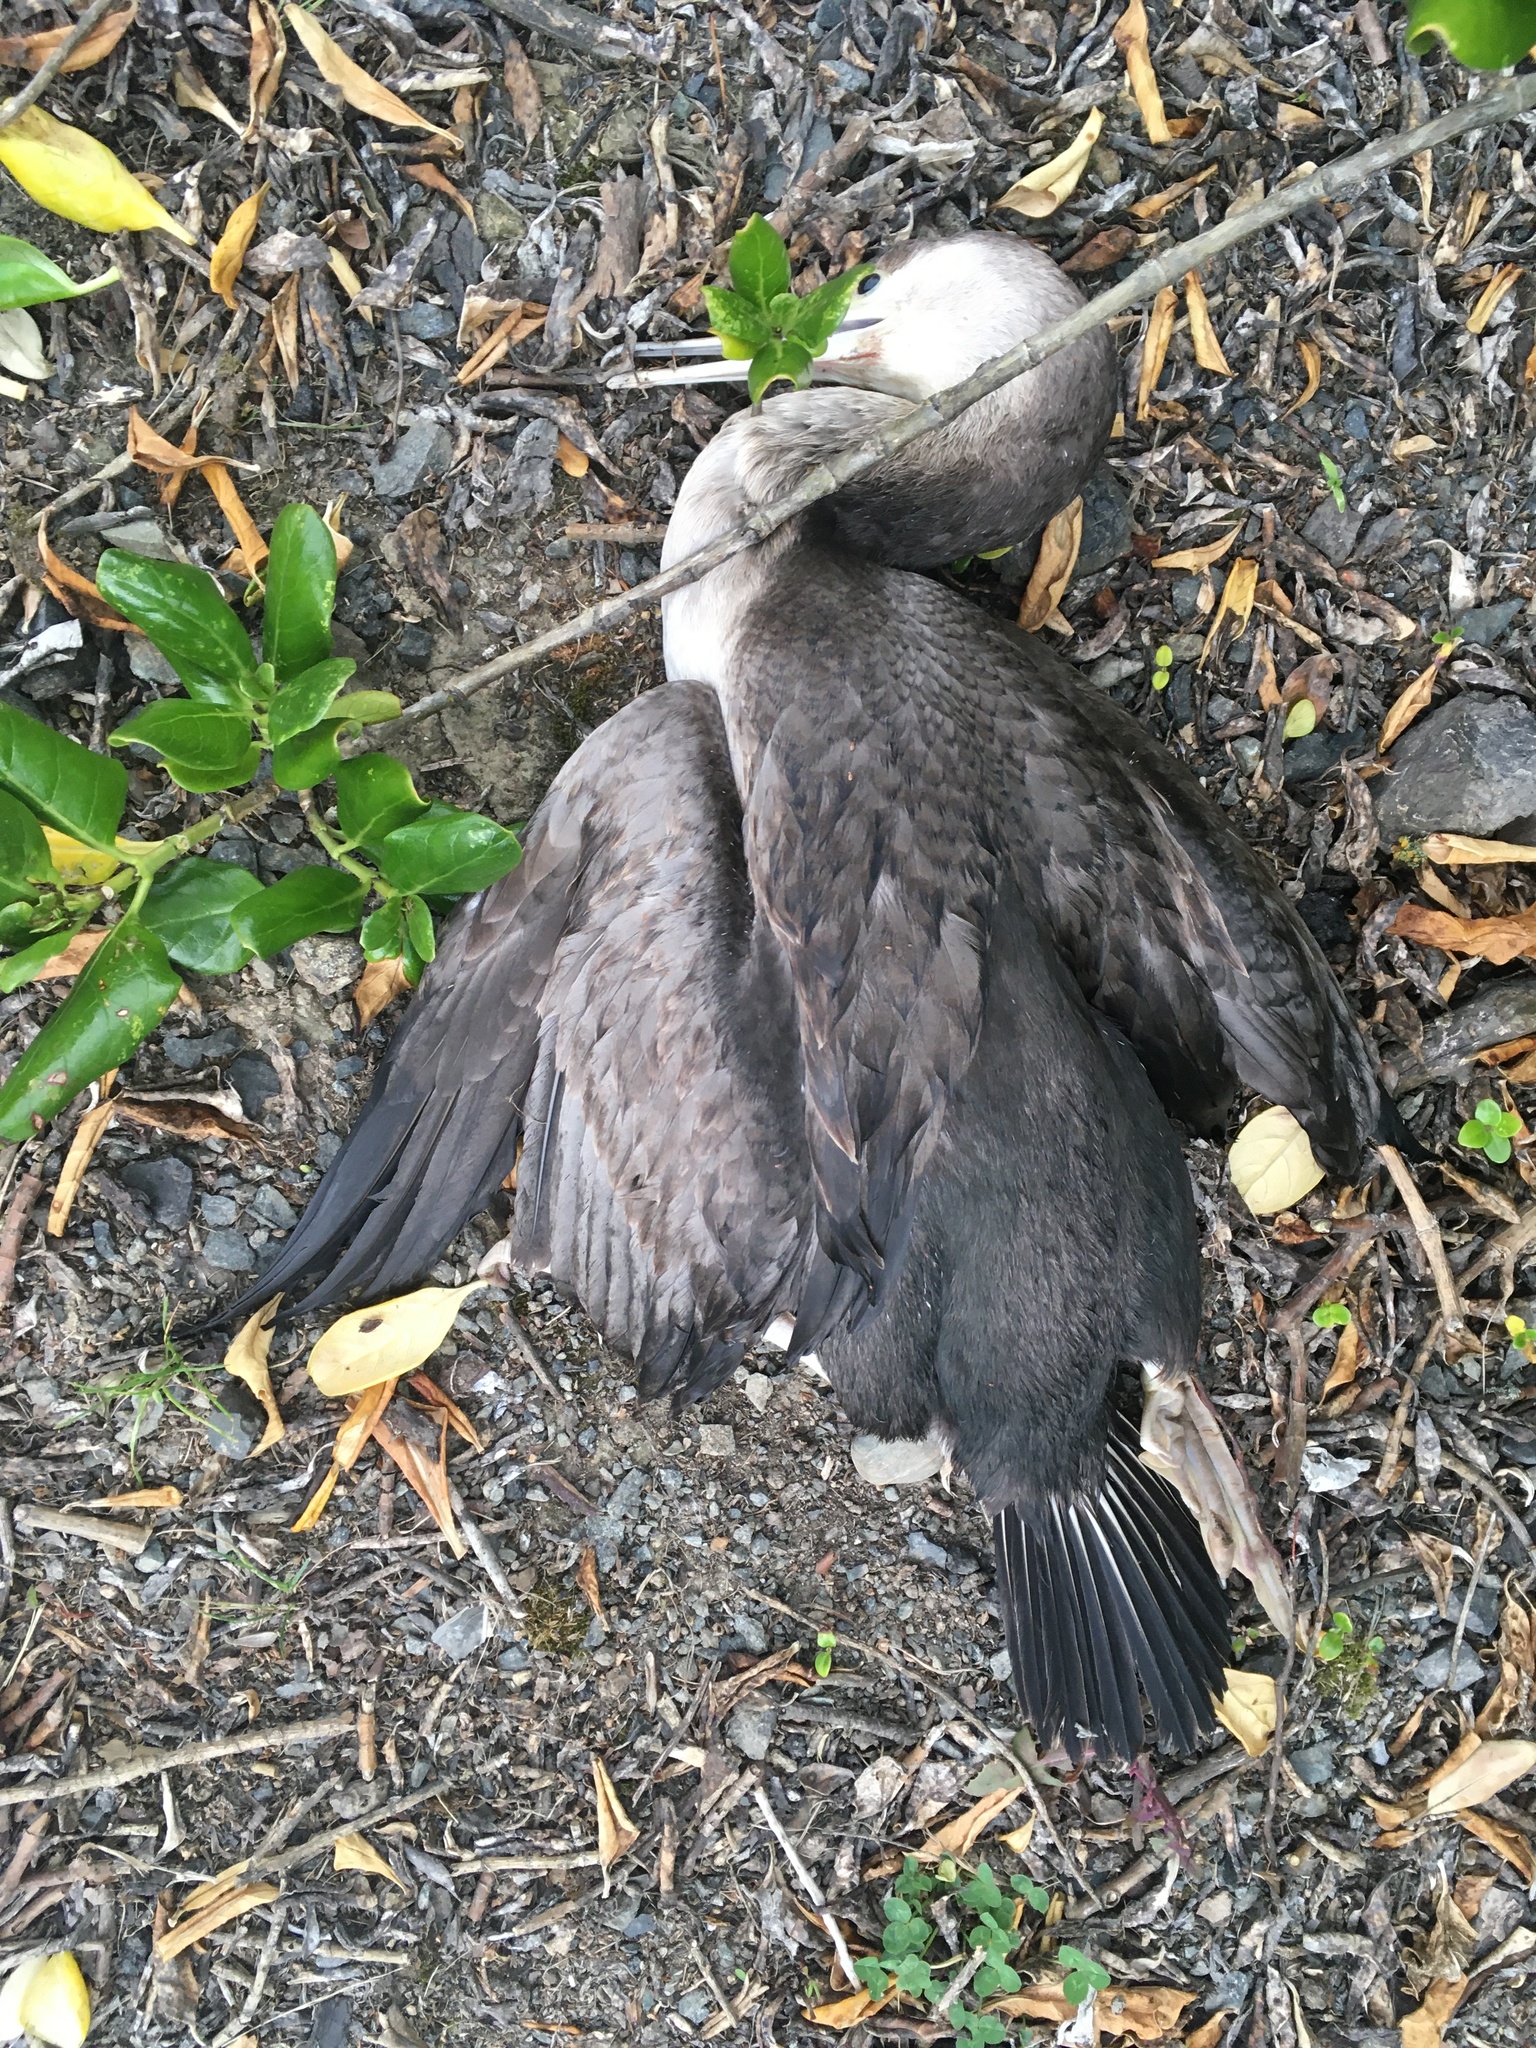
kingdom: Animalia
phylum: Chordata
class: Aves
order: Suliformes
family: Phalacrocoracidae
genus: Phalacrocorax
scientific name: Phalacrocorax punctatus
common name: Spotted shag
